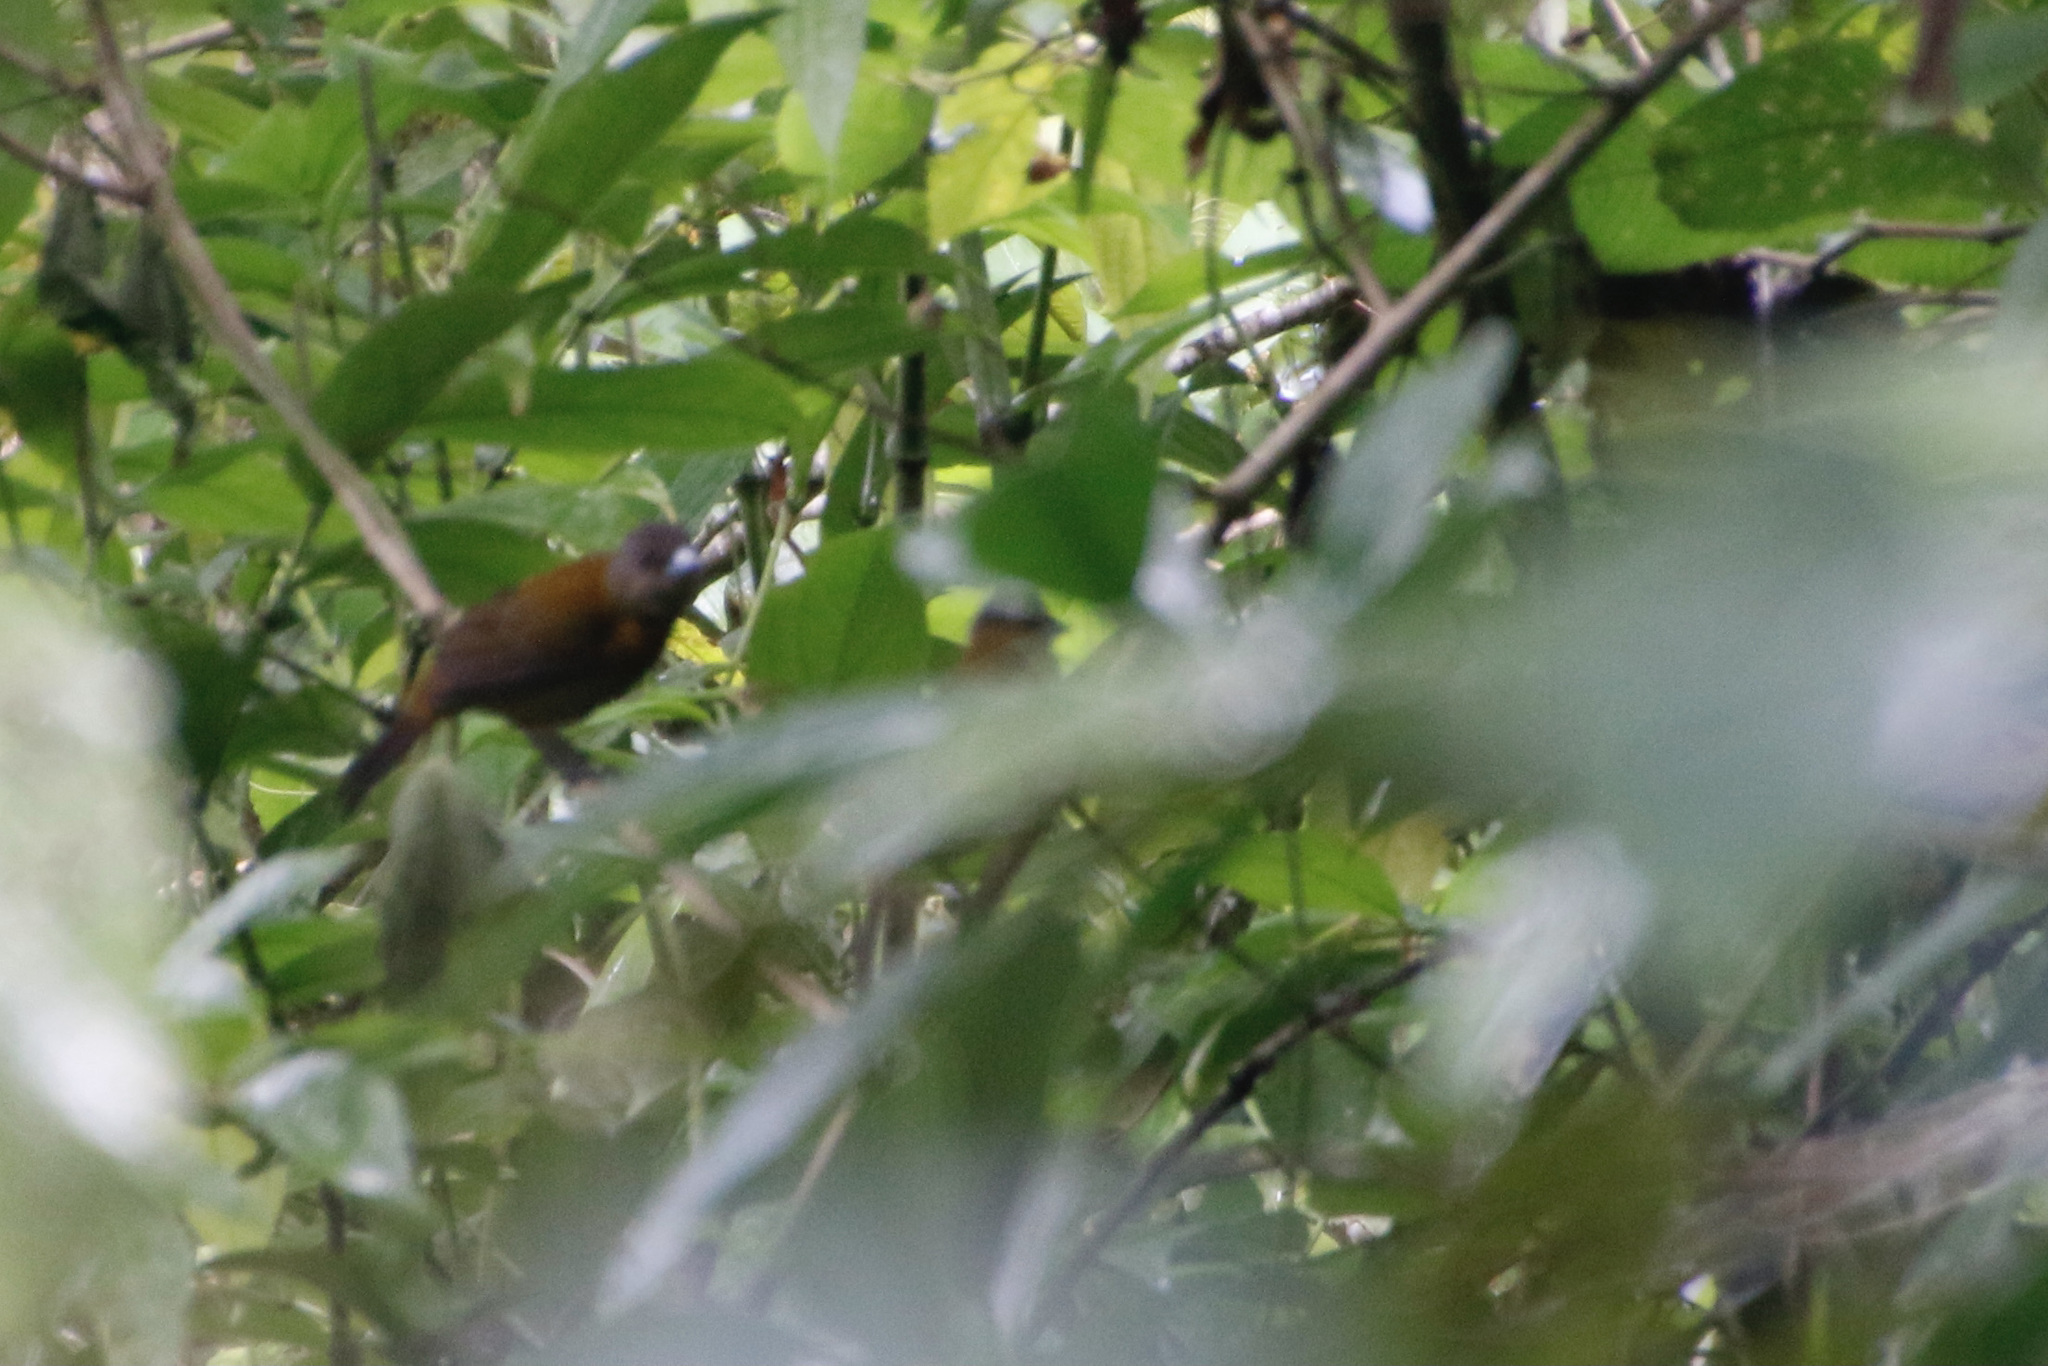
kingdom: Animalia
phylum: Chordata
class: Aves
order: Passeriformes
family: Thraupidae
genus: Ramphocelus
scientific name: Ramphocelus passerinii
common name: Passerini's tanager
